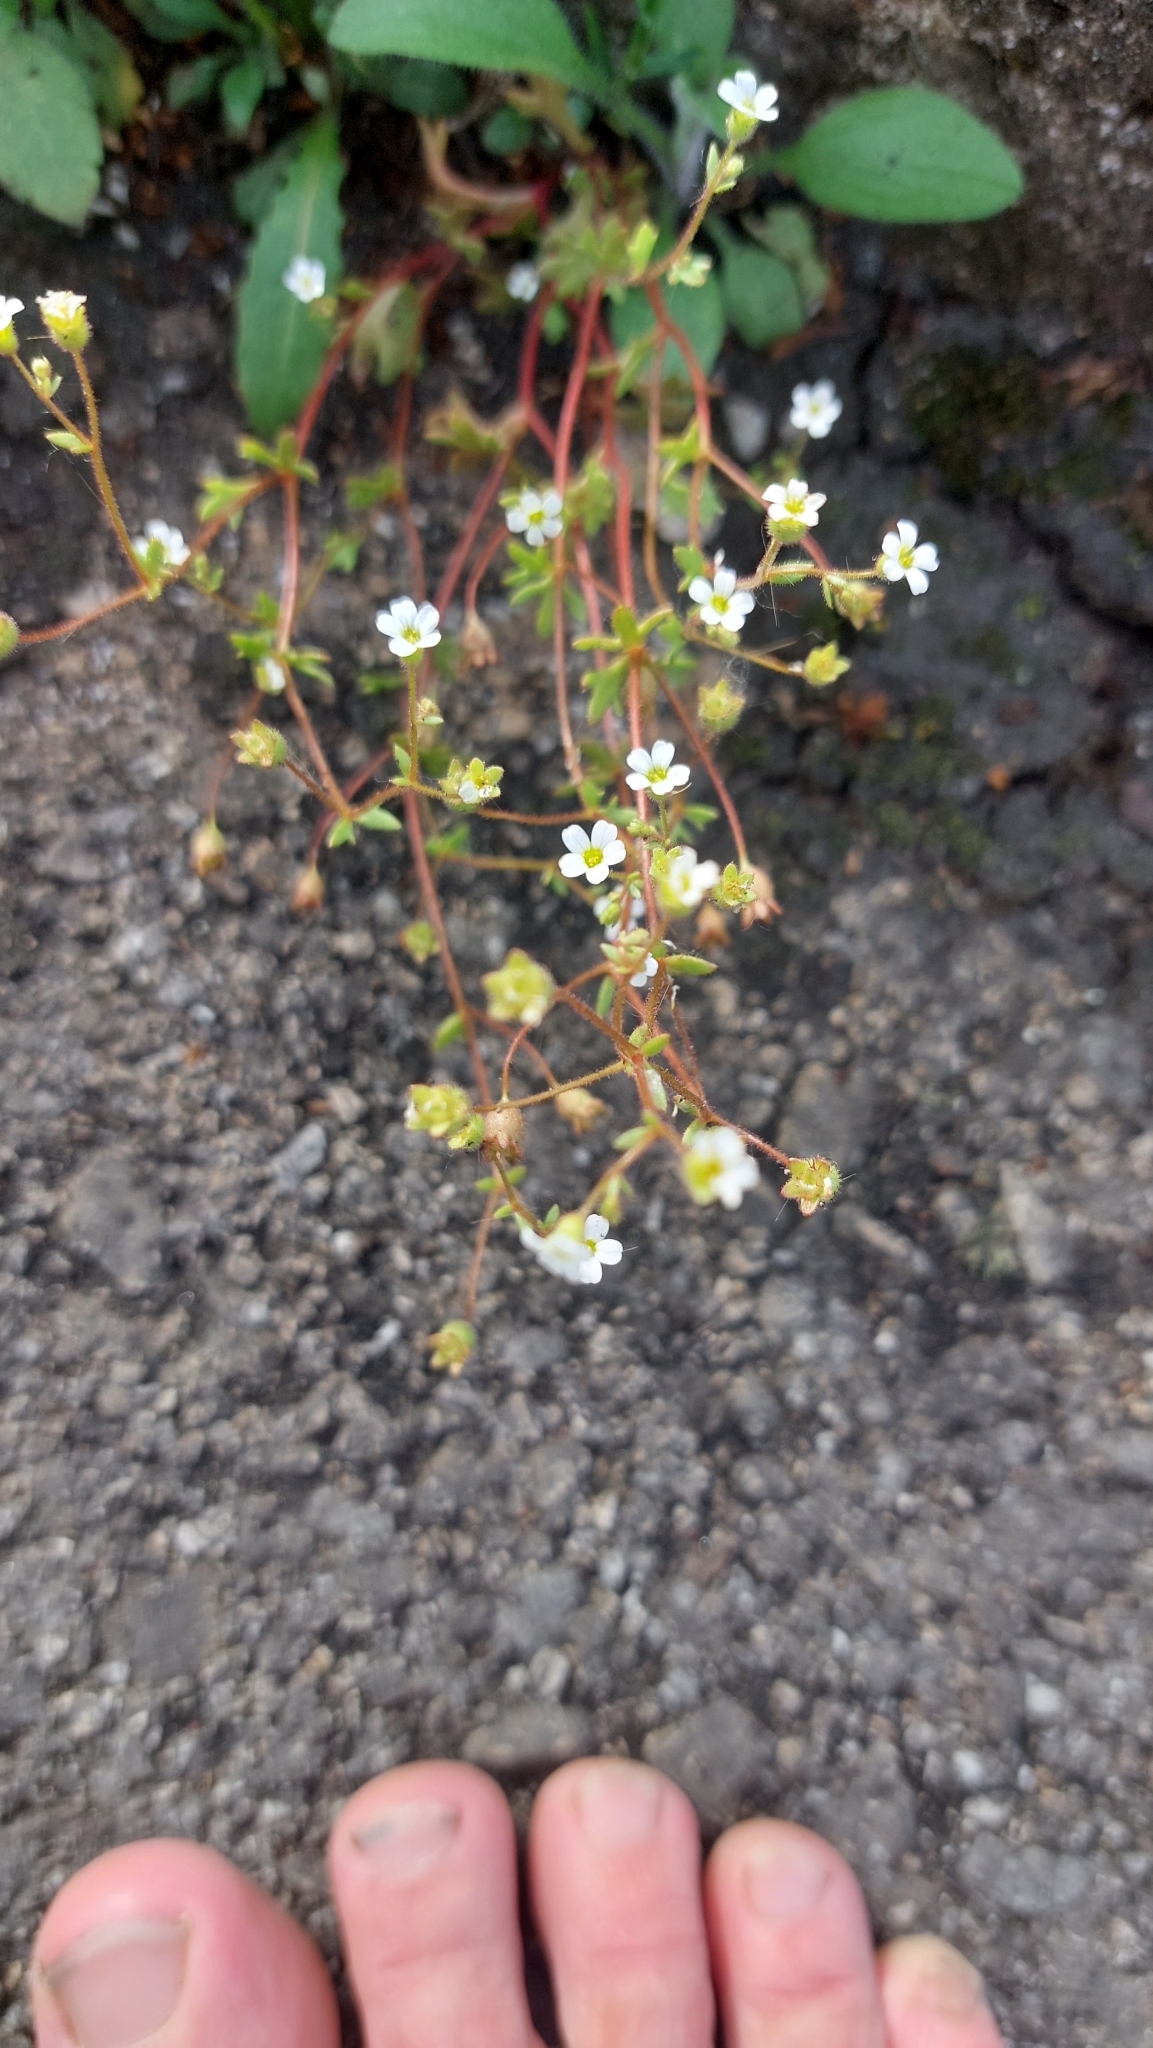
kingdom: Plantae
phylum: Tracheophyta
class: Magnoliopsida
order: Saxifragales
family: Saxifragaceae
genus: Saxifraga
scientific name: Saxifraga tridactylites
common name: Rue-leaved saxifrage
